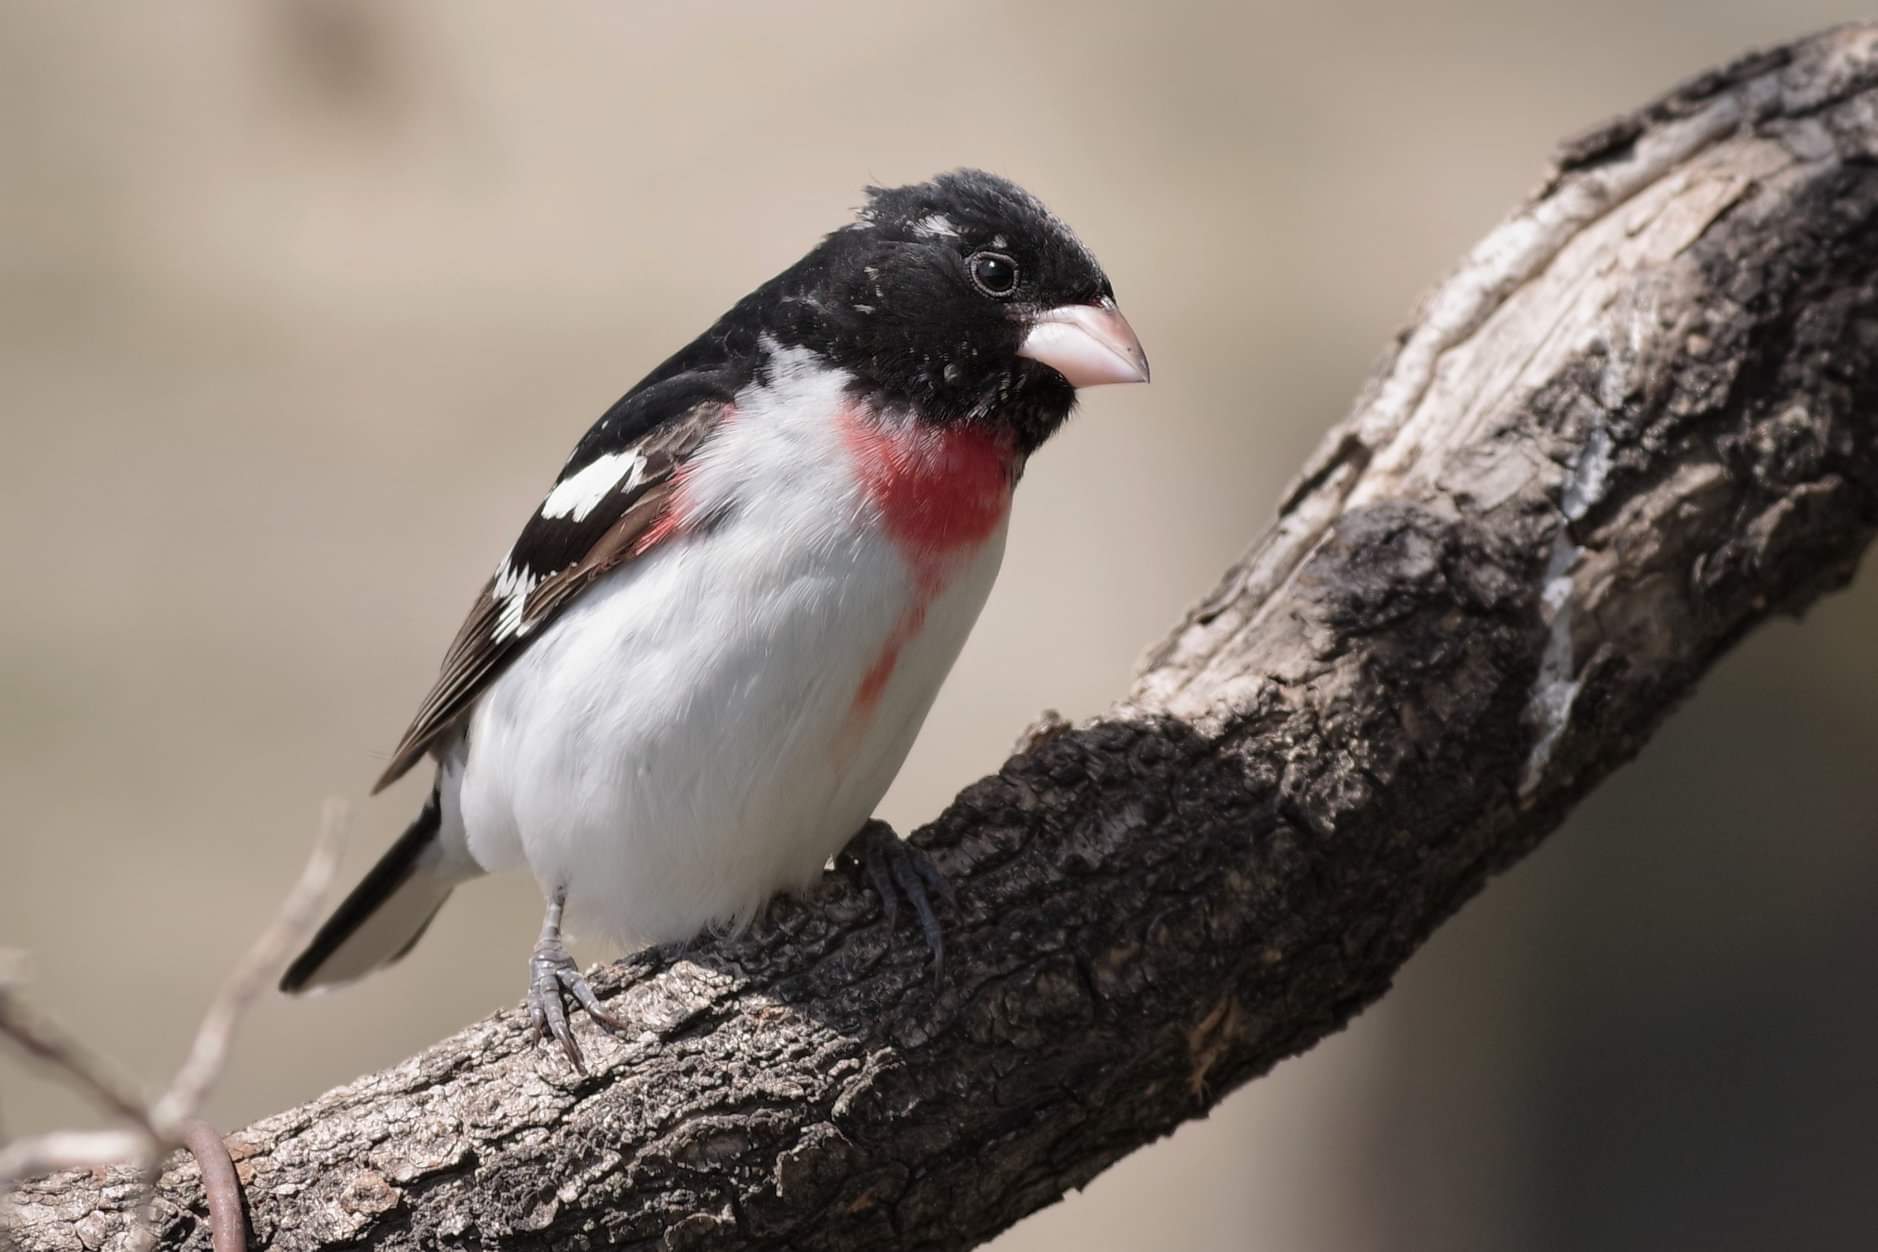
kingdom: Animalia
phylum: Chordata
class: Aves
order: Passeriformes
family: Cardinalidae
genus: Pheucticus
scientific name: Pheucticus ludovicianus
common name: Rose-breasted grosbeak
